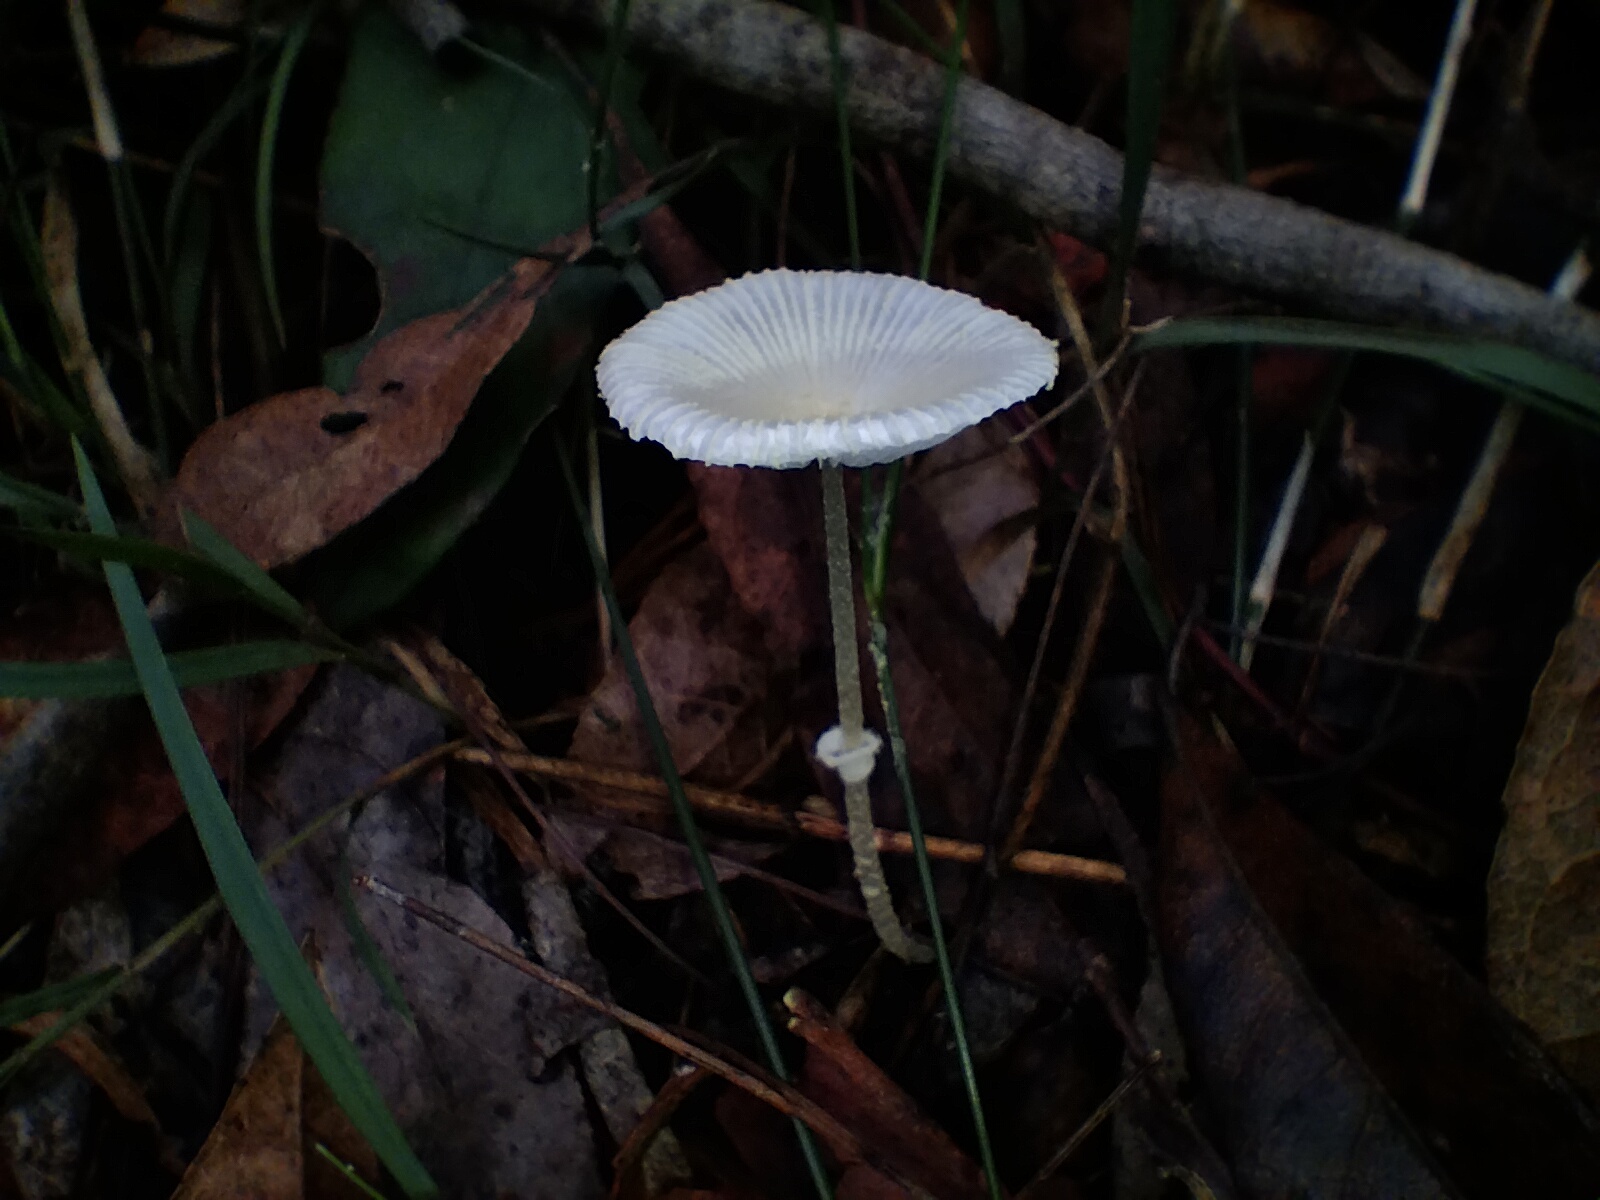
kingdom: Fungi
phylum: Basidiomycota
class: Agaricomycetes
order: Agaricales
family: Agaricaceae
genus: Leucocoprinus
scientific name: Leucocoprinus fragilissimus
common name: Fragile dapperling
